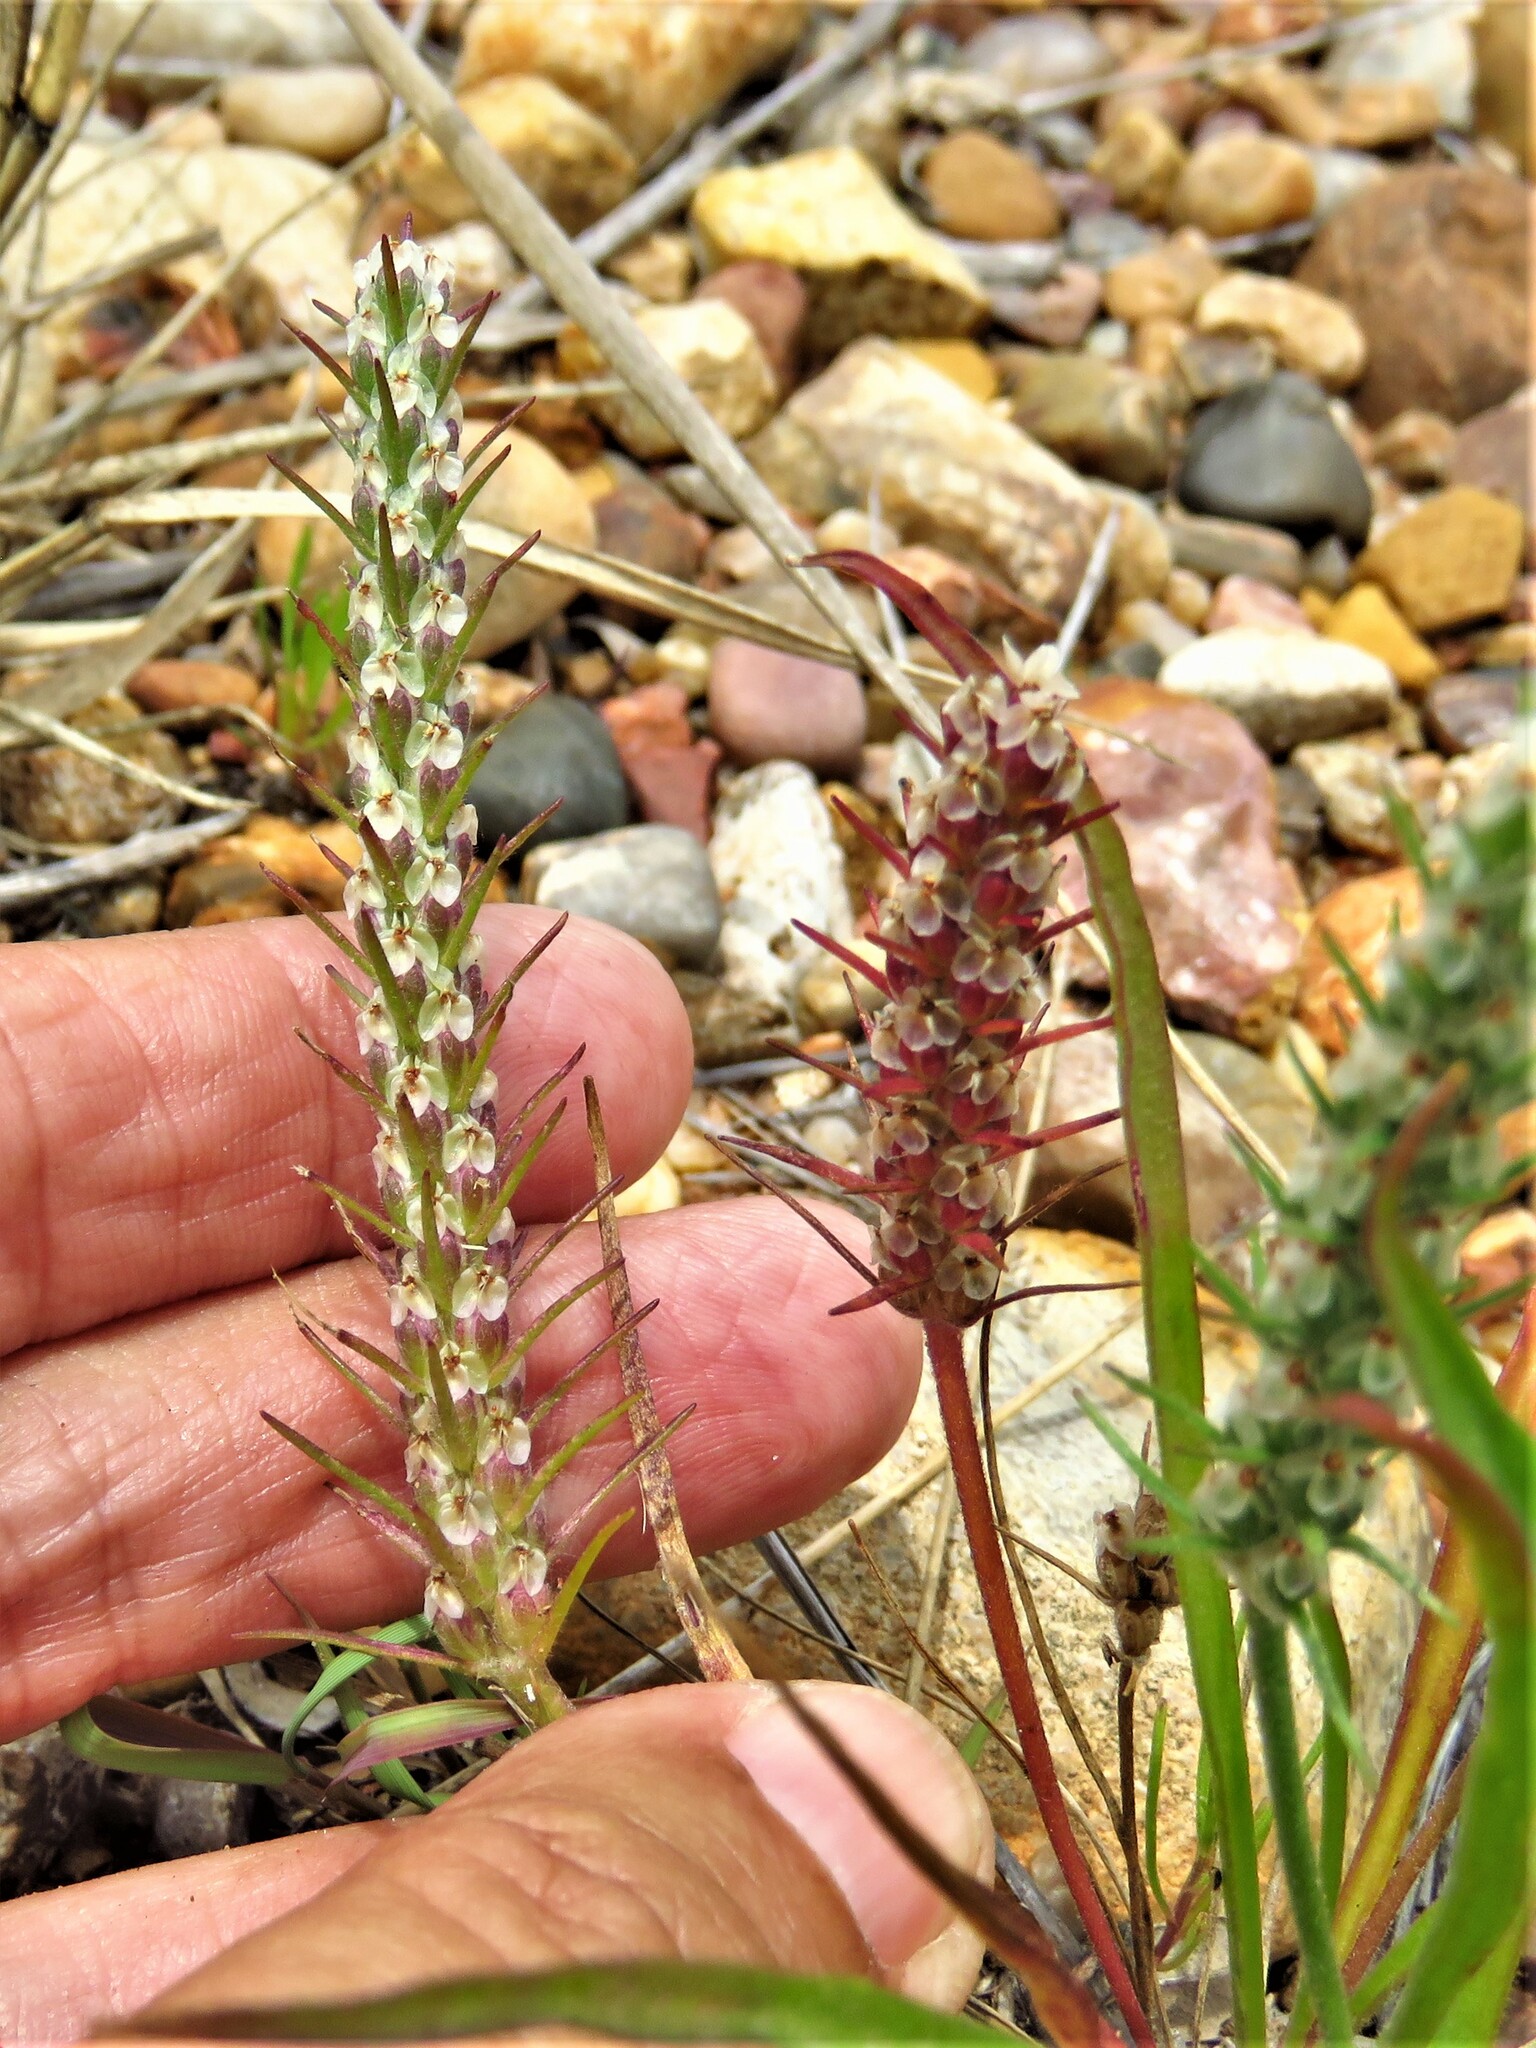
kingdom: Plantae
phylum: Tracheophyta
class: Magnoliopsida
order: Lamiales
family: Plantaginaceae
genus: Plantago
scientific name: Plantago aristata
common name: Bracted plantain
